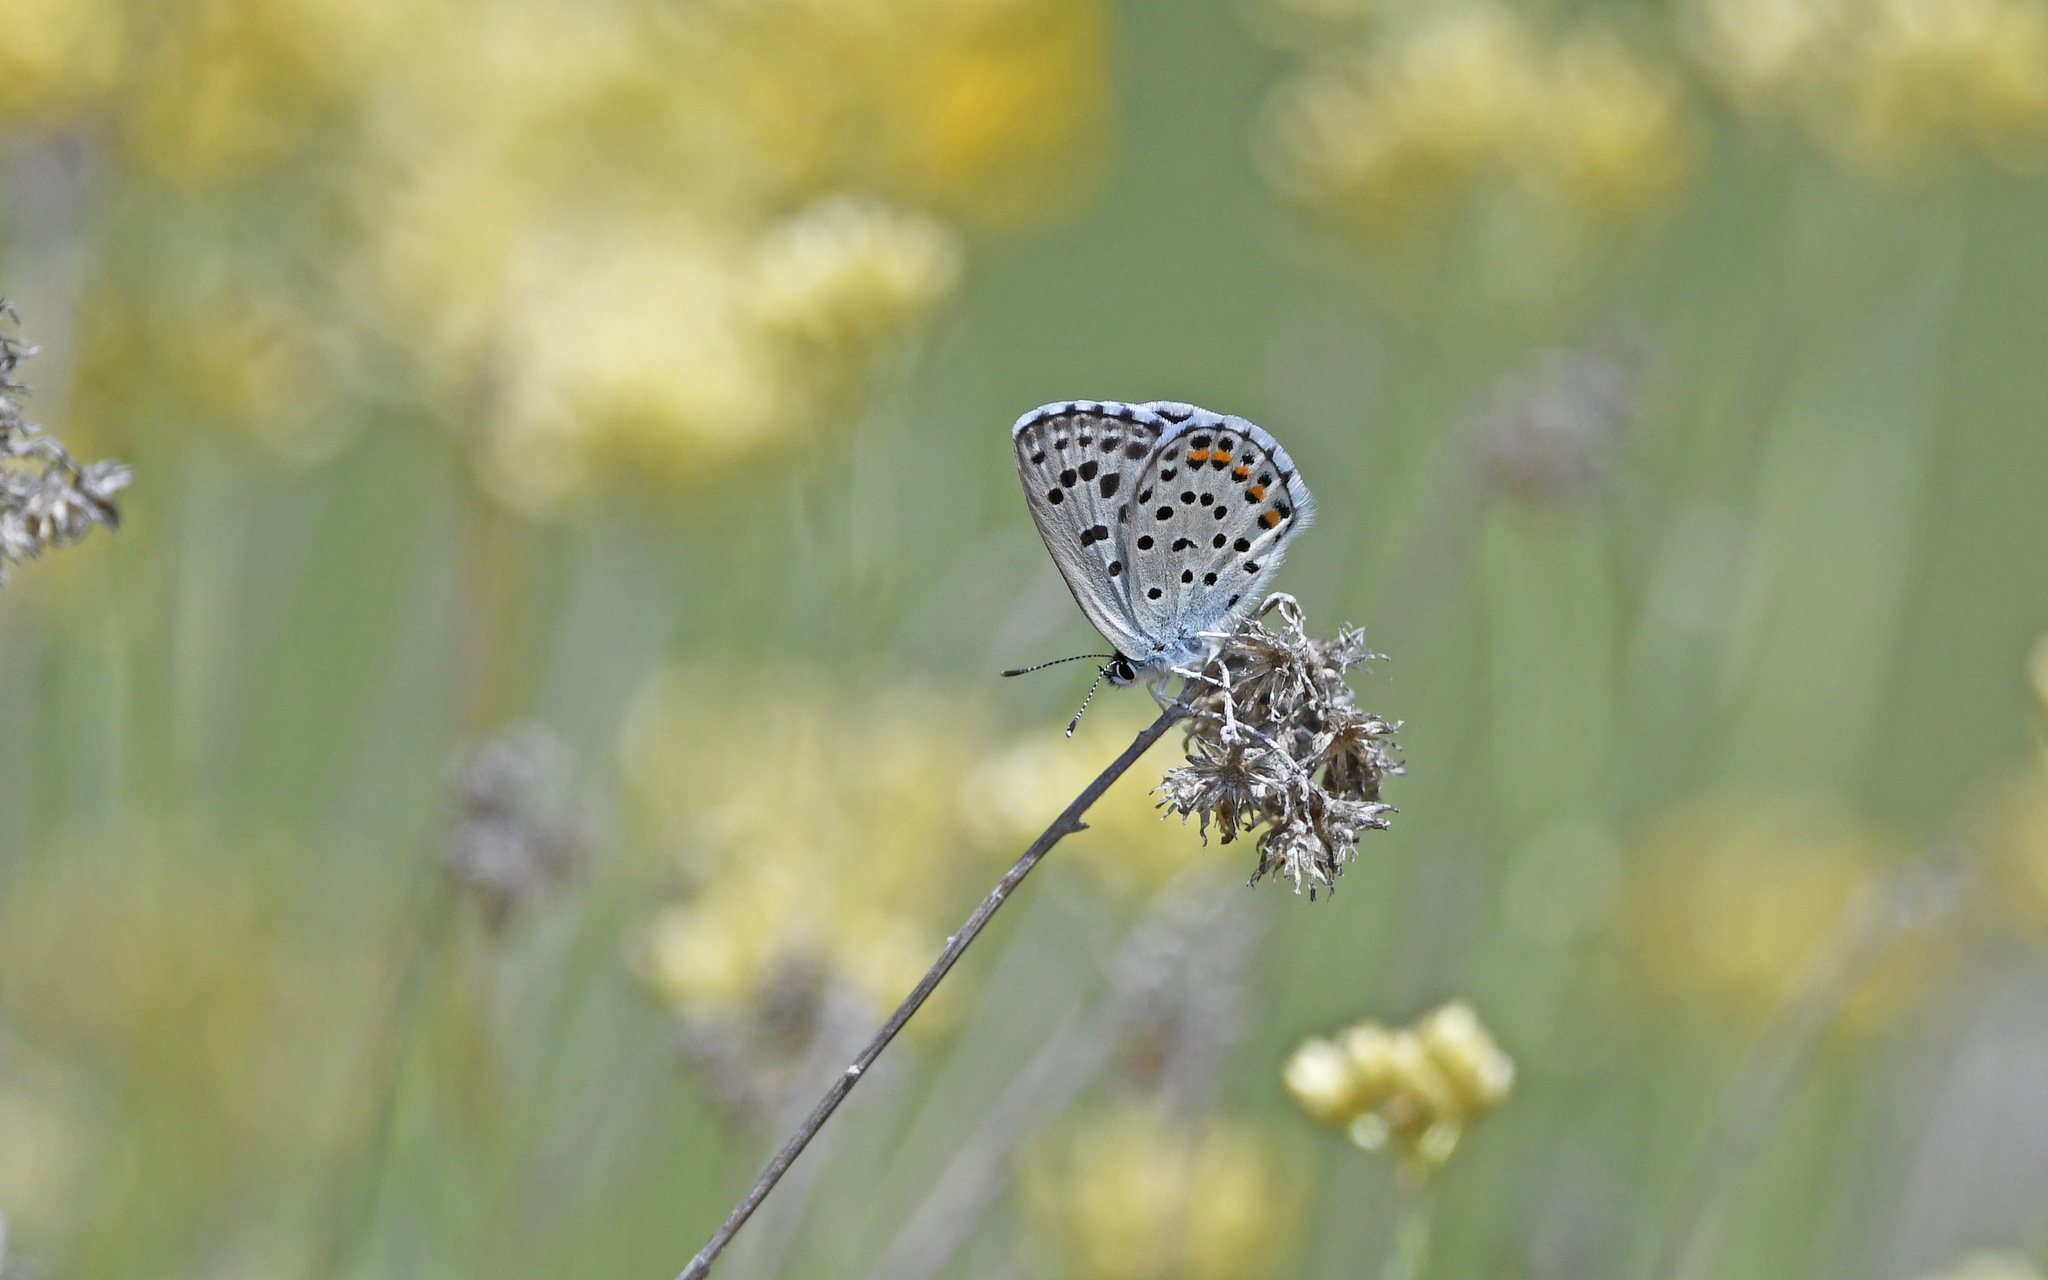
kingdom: Animalia
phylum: Arthropoda
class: Insecta
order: Lepidoptera
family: Lycaenidae
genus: Pseudophilotes
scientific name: Pseudophilotes baton
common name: Baton blue
